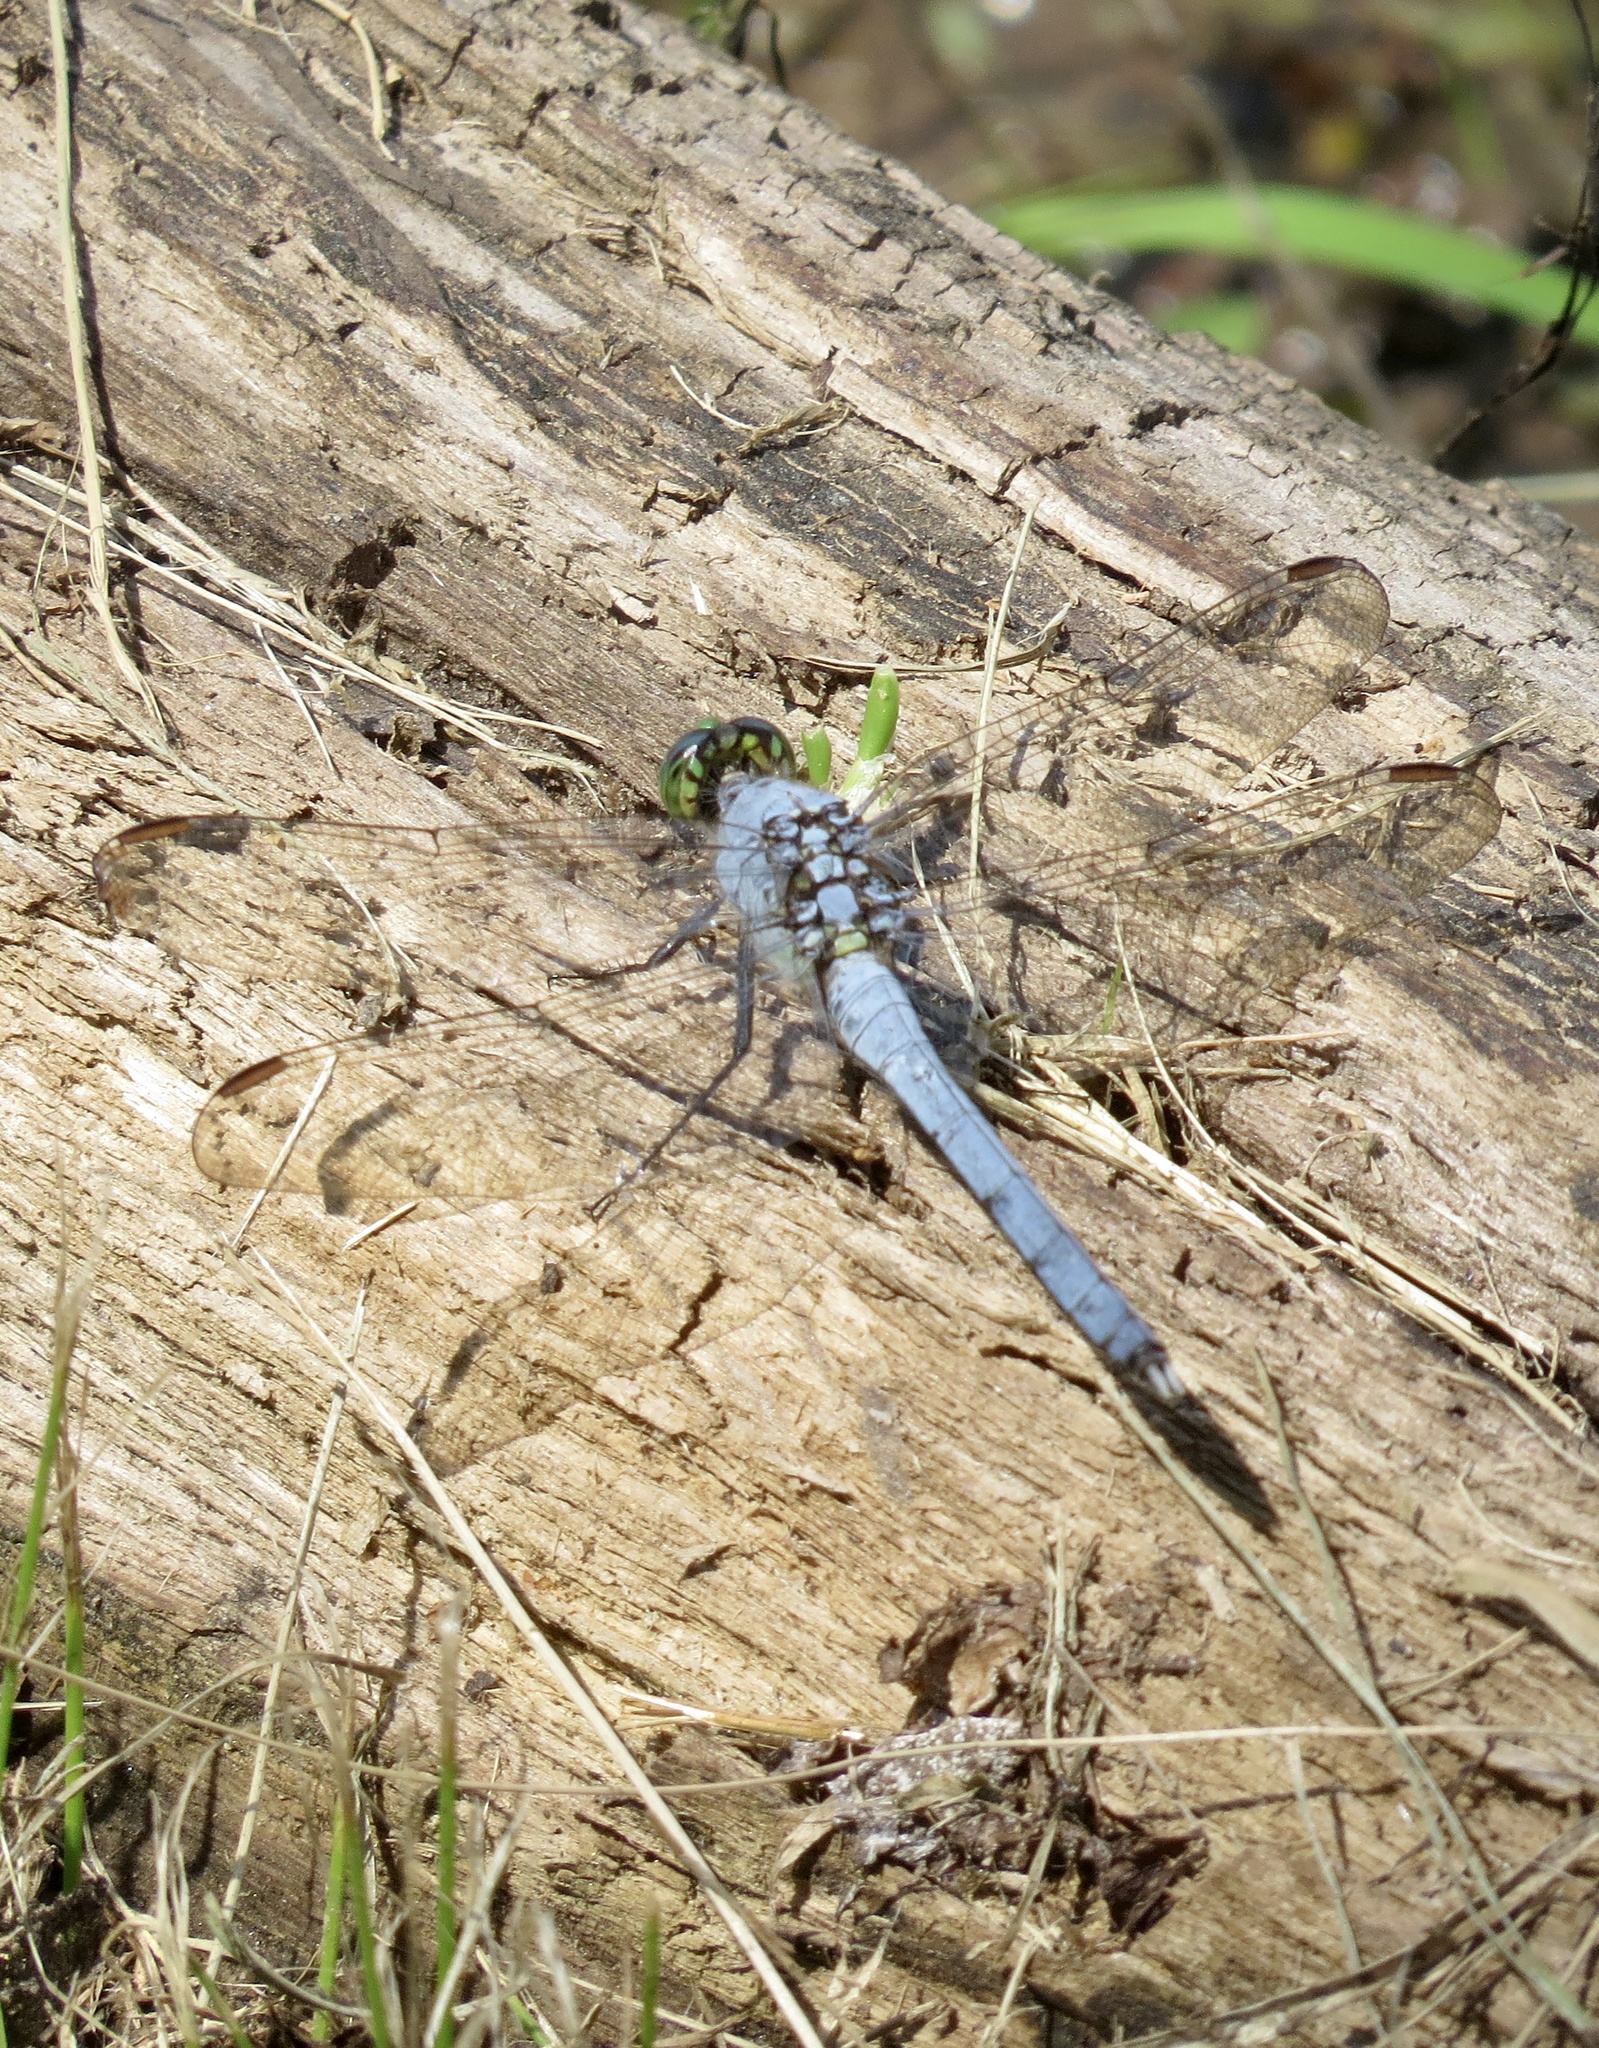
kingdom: Animalia
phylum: Arthropoda
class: Insecta
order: Odonata
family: Libellulidae
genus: Erythemis
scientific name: Erythemis simplicicollis
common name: Eastern pondhawk
